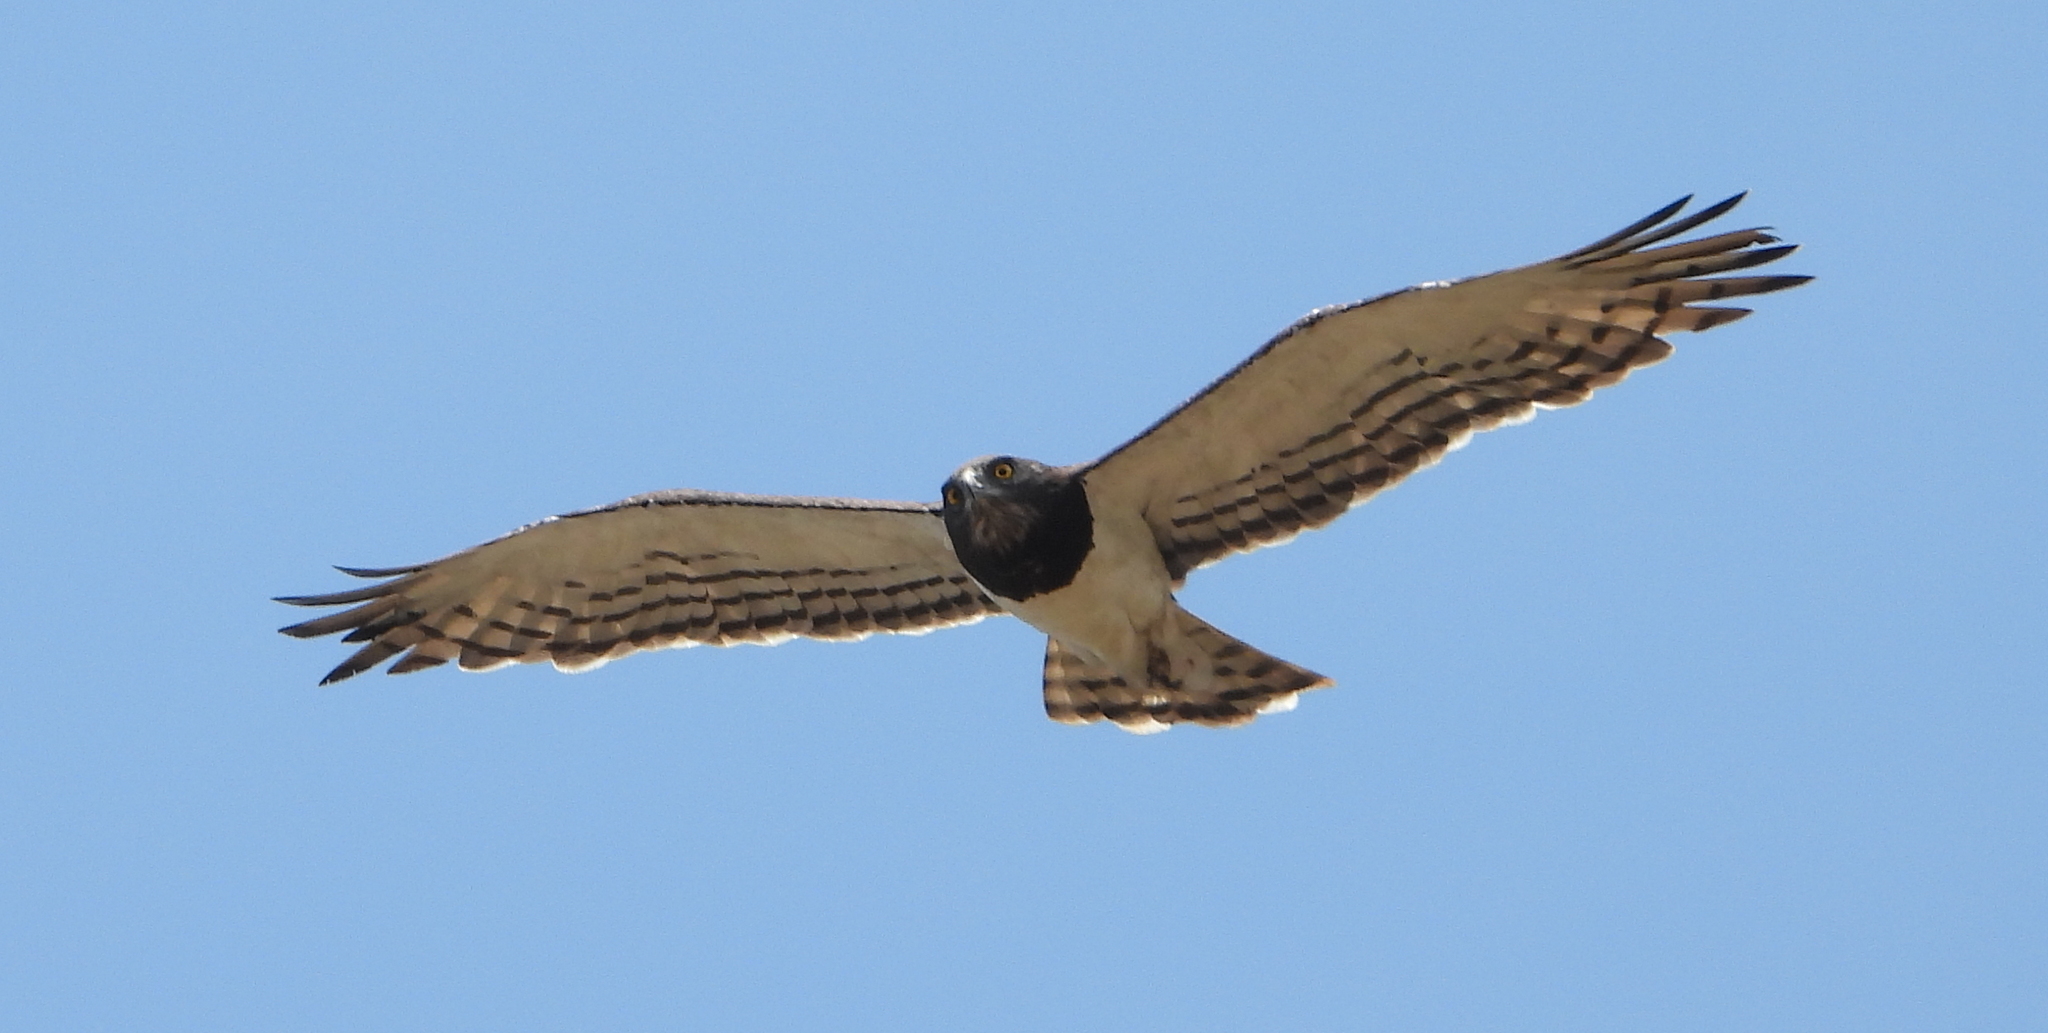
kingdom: Animalia
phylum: Chordata
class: Aves
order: Accipitriformes
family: Accipitridae
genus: Circaetus
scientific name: Circaetus pectoralis
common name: Black-chested snake eagle
